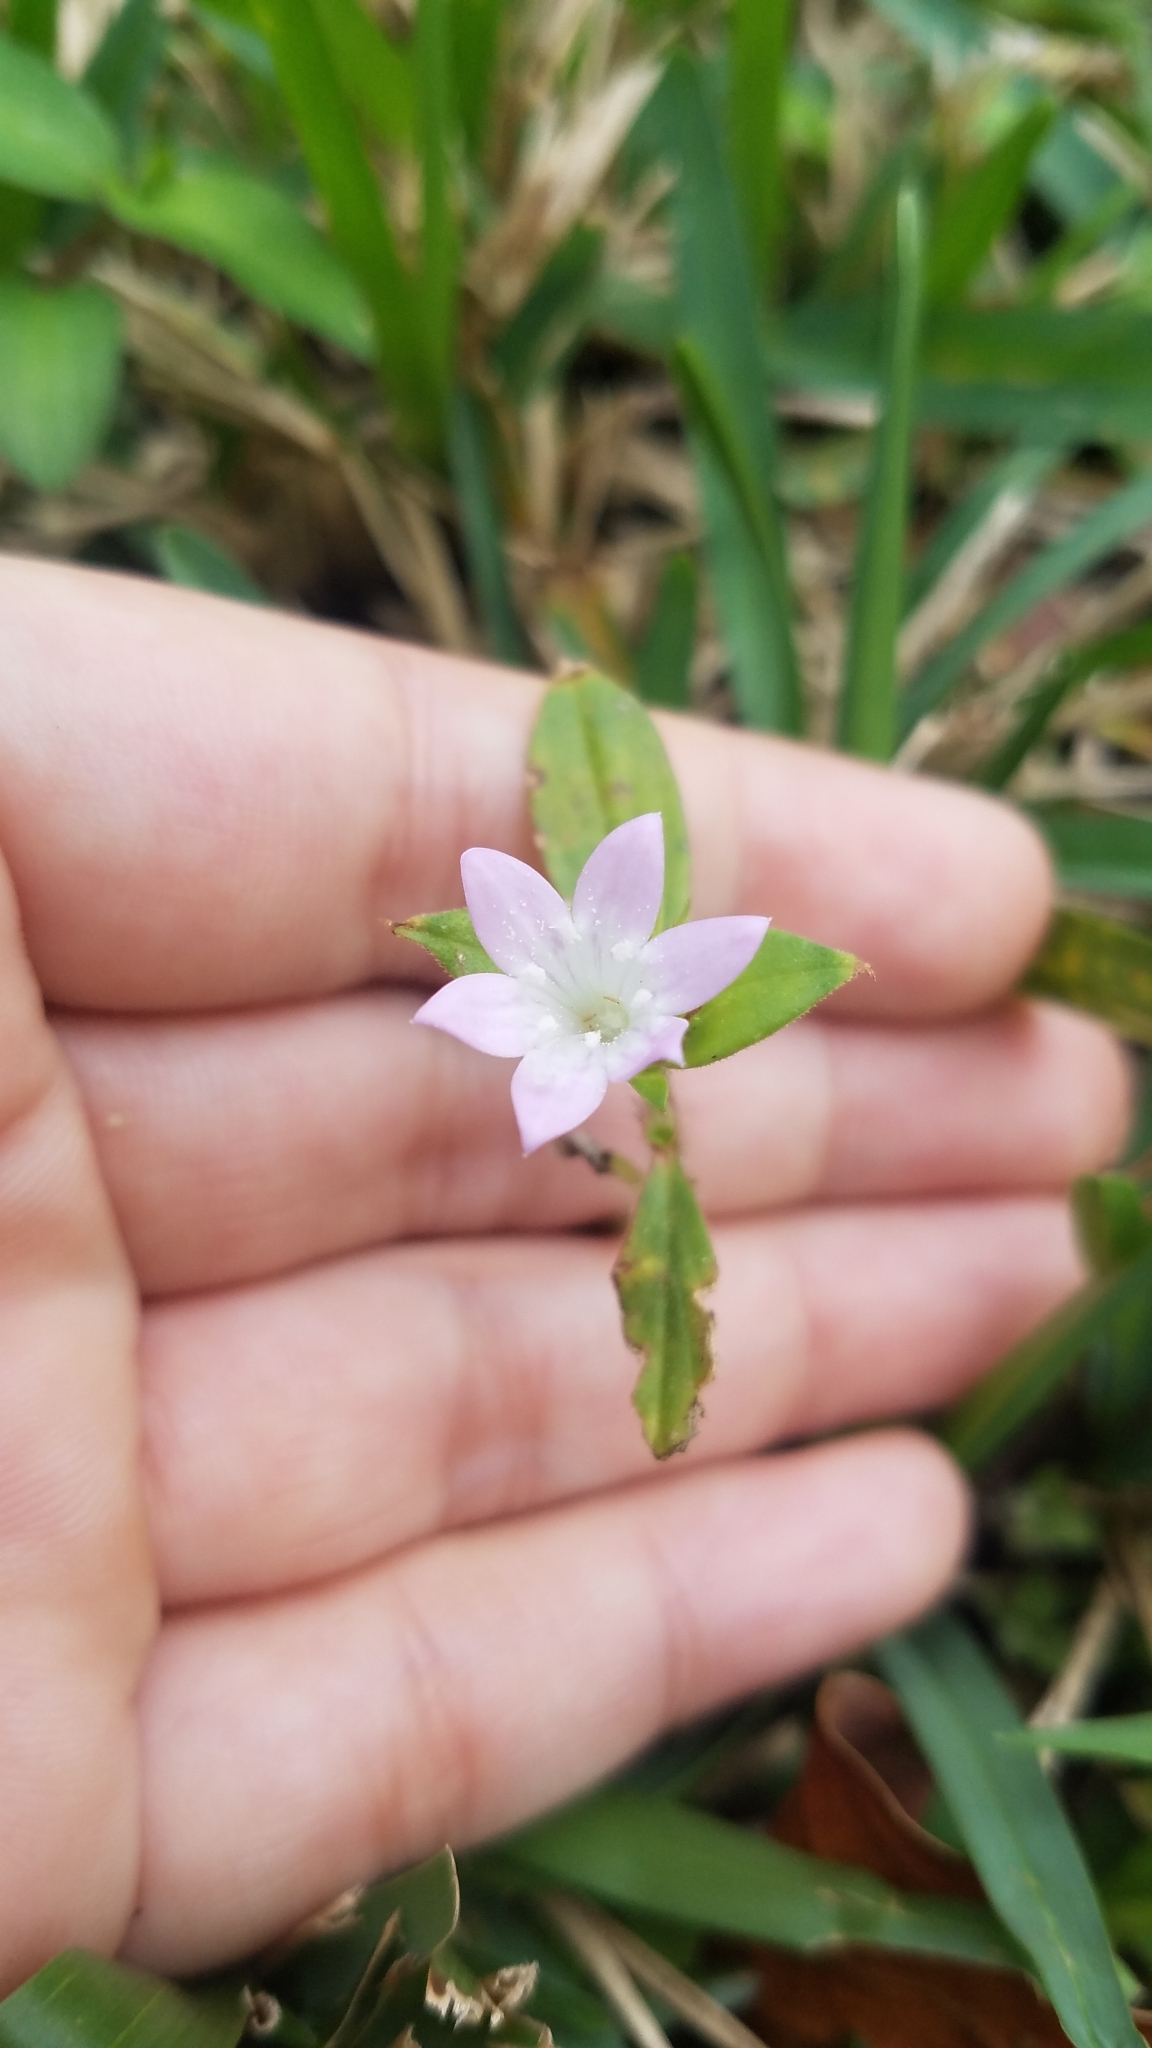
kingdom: Plantae
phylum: Tracheophyta
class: Magnoliopsida
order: Gentianales
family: Rubiaceae
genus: Richardia
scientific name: Richardia grandiflora
